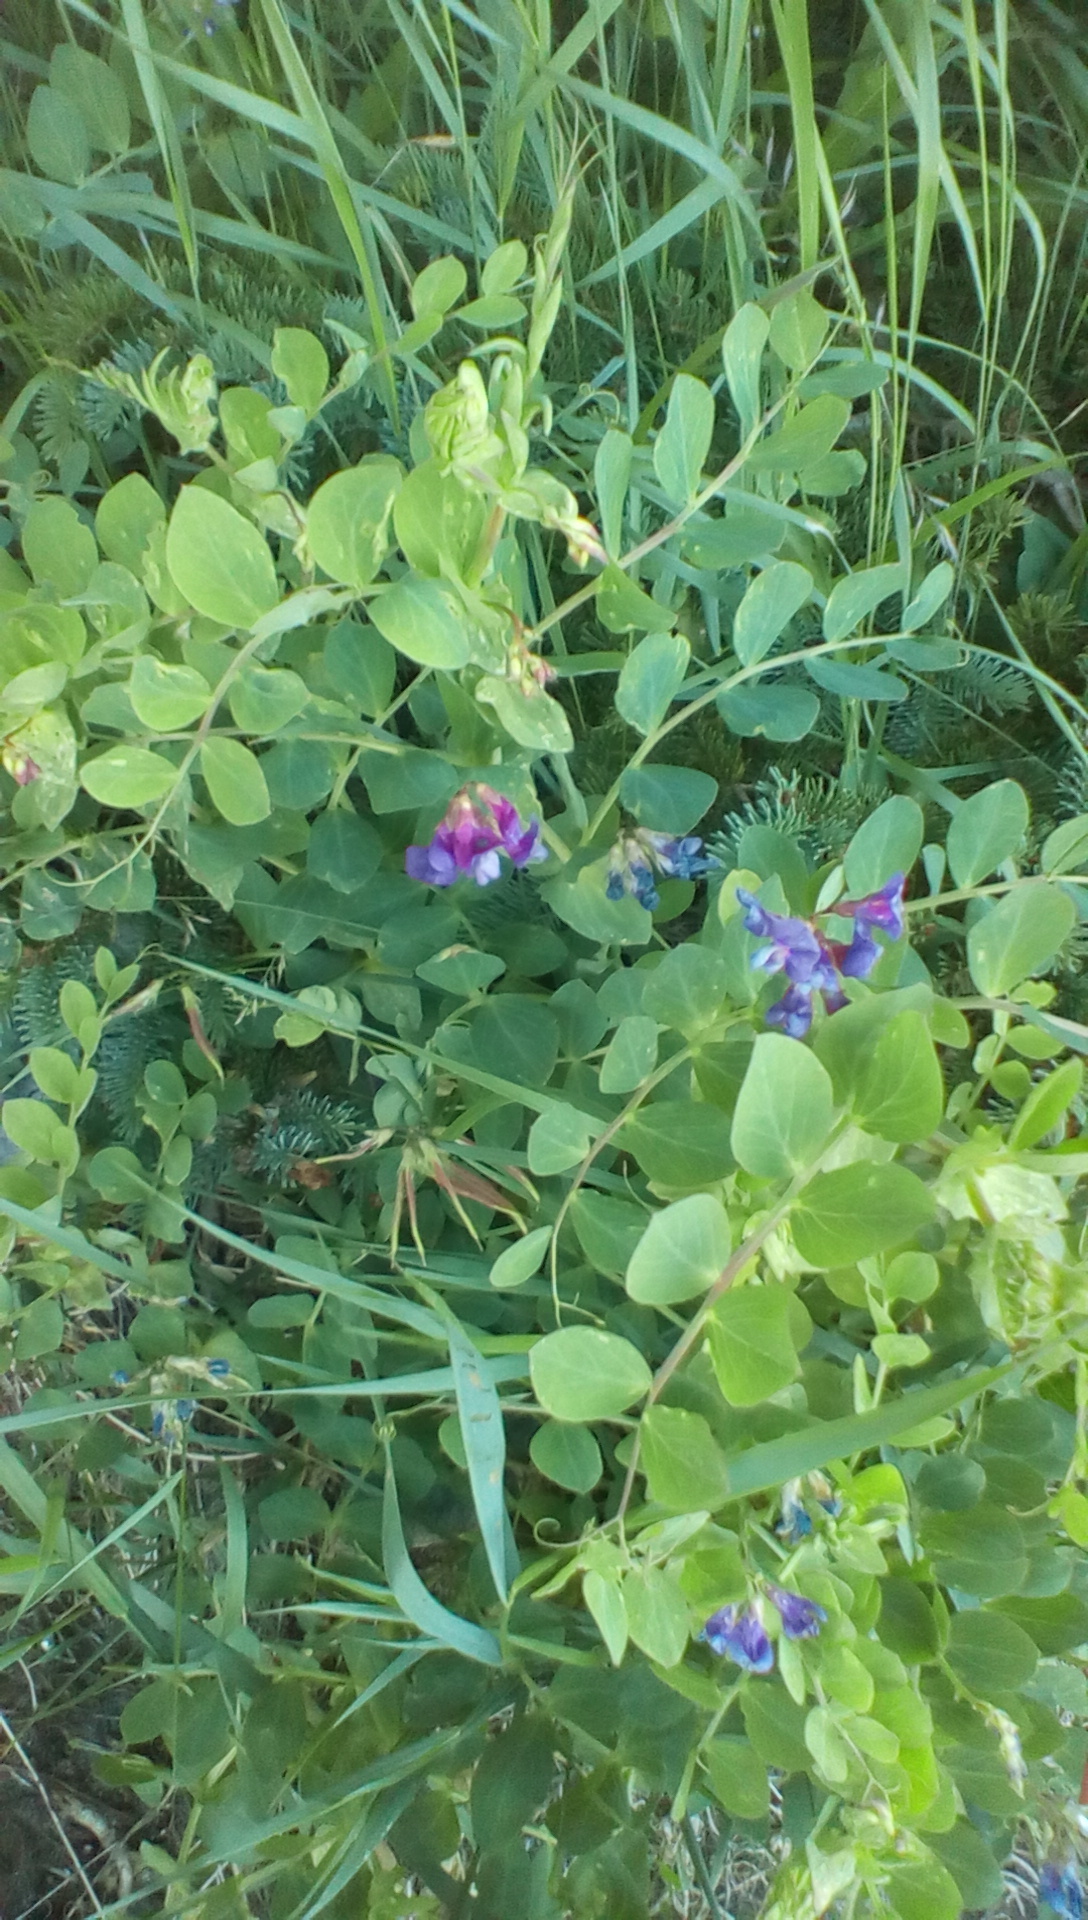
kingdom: Plantae
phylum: Tracheophyta
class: Magnoliopsida
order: Fabales
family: Fabaceae
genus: Lathyrus
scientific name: Lathyrus japonicus
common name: Sea pea
